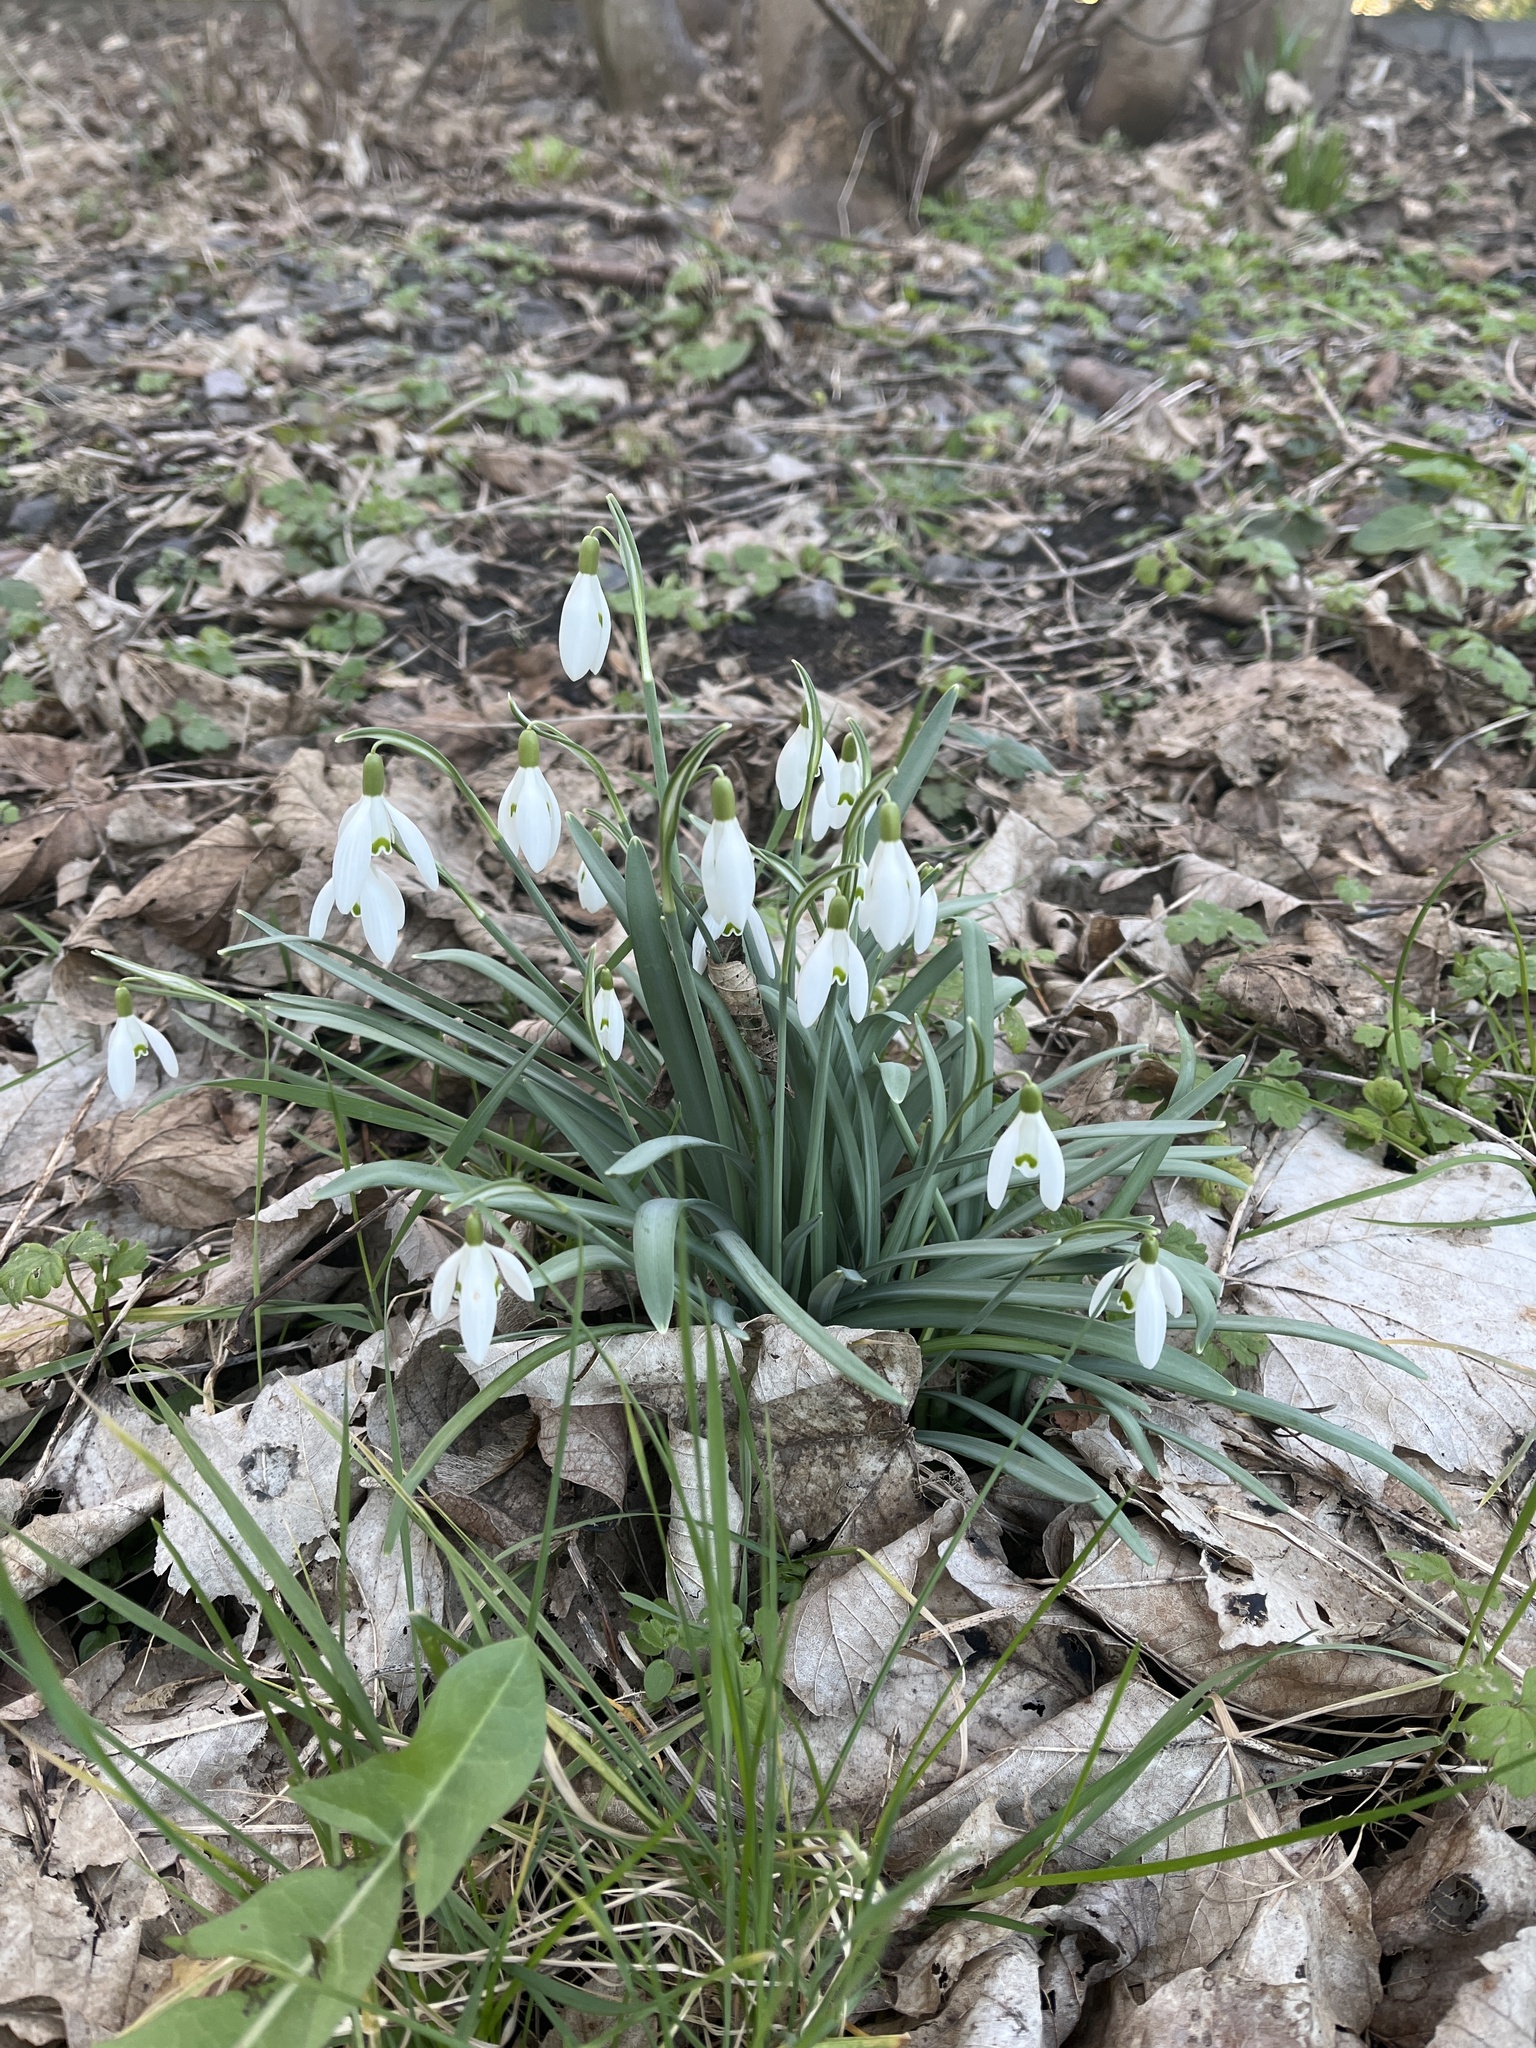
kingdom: Plantae
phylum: Tracheophyta
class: Liliopsida
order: Asparagales
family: Amaryllidaceae
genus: Galanthus
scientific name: Galanthus nivalis
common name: Snowdrop
